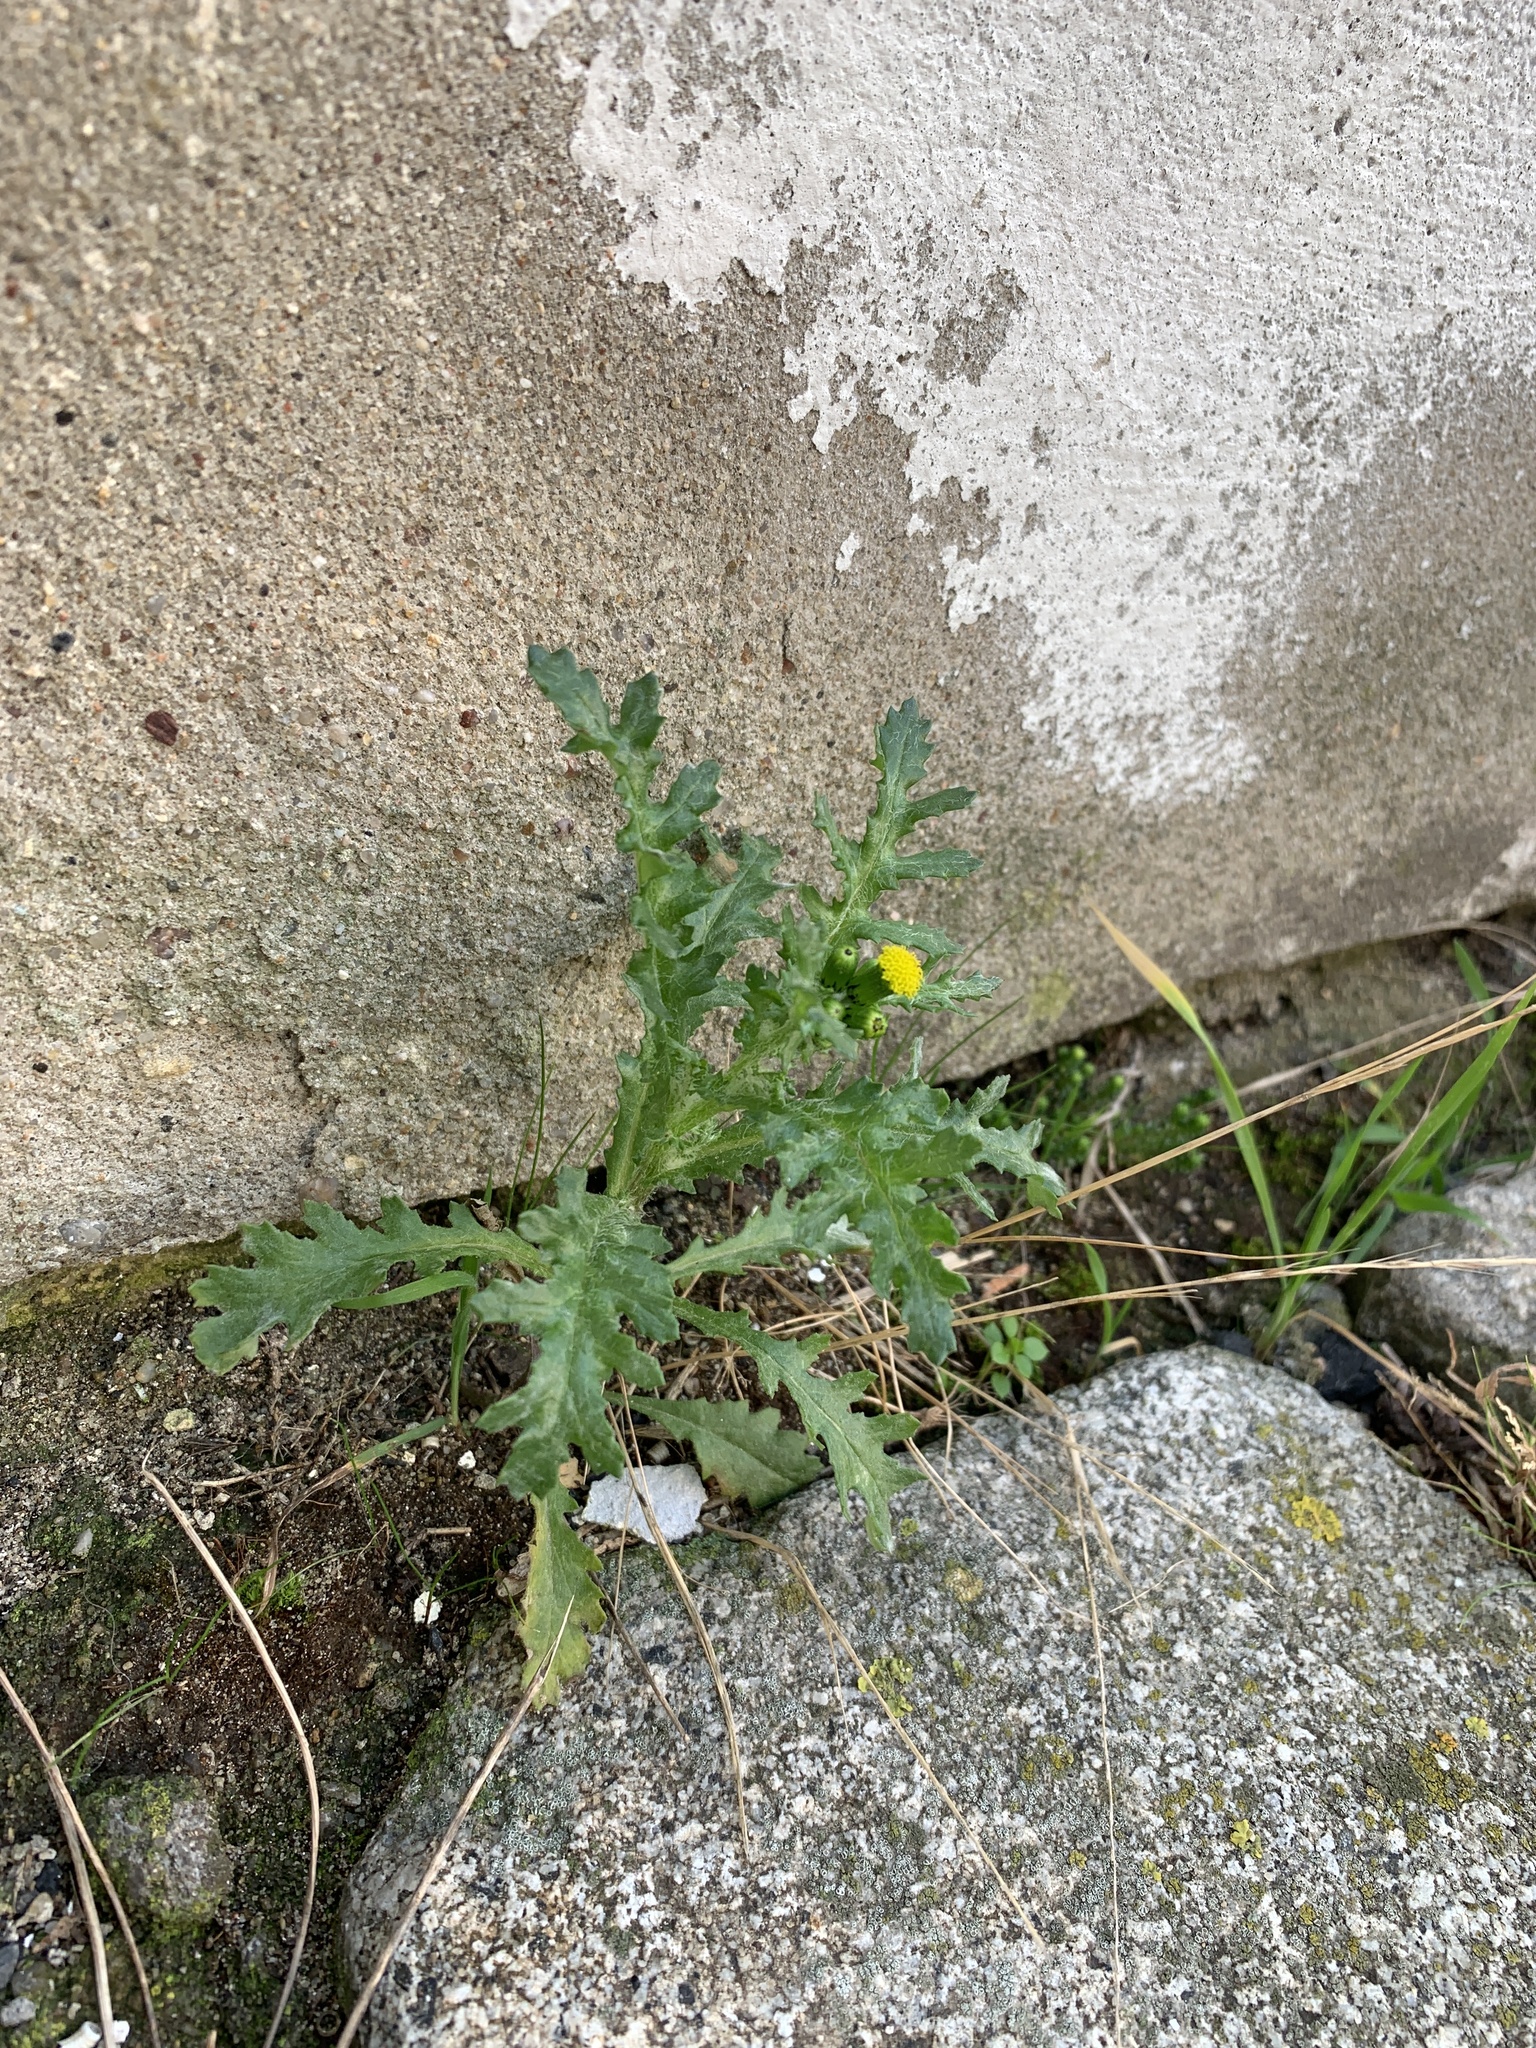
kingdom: Plantae
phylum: Tracheophyta
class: Magnoliopsida
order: Asterales
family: Asteraceae
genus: Senecio
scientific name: Senecio vulgaris
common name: Old-man-in-the-spring
